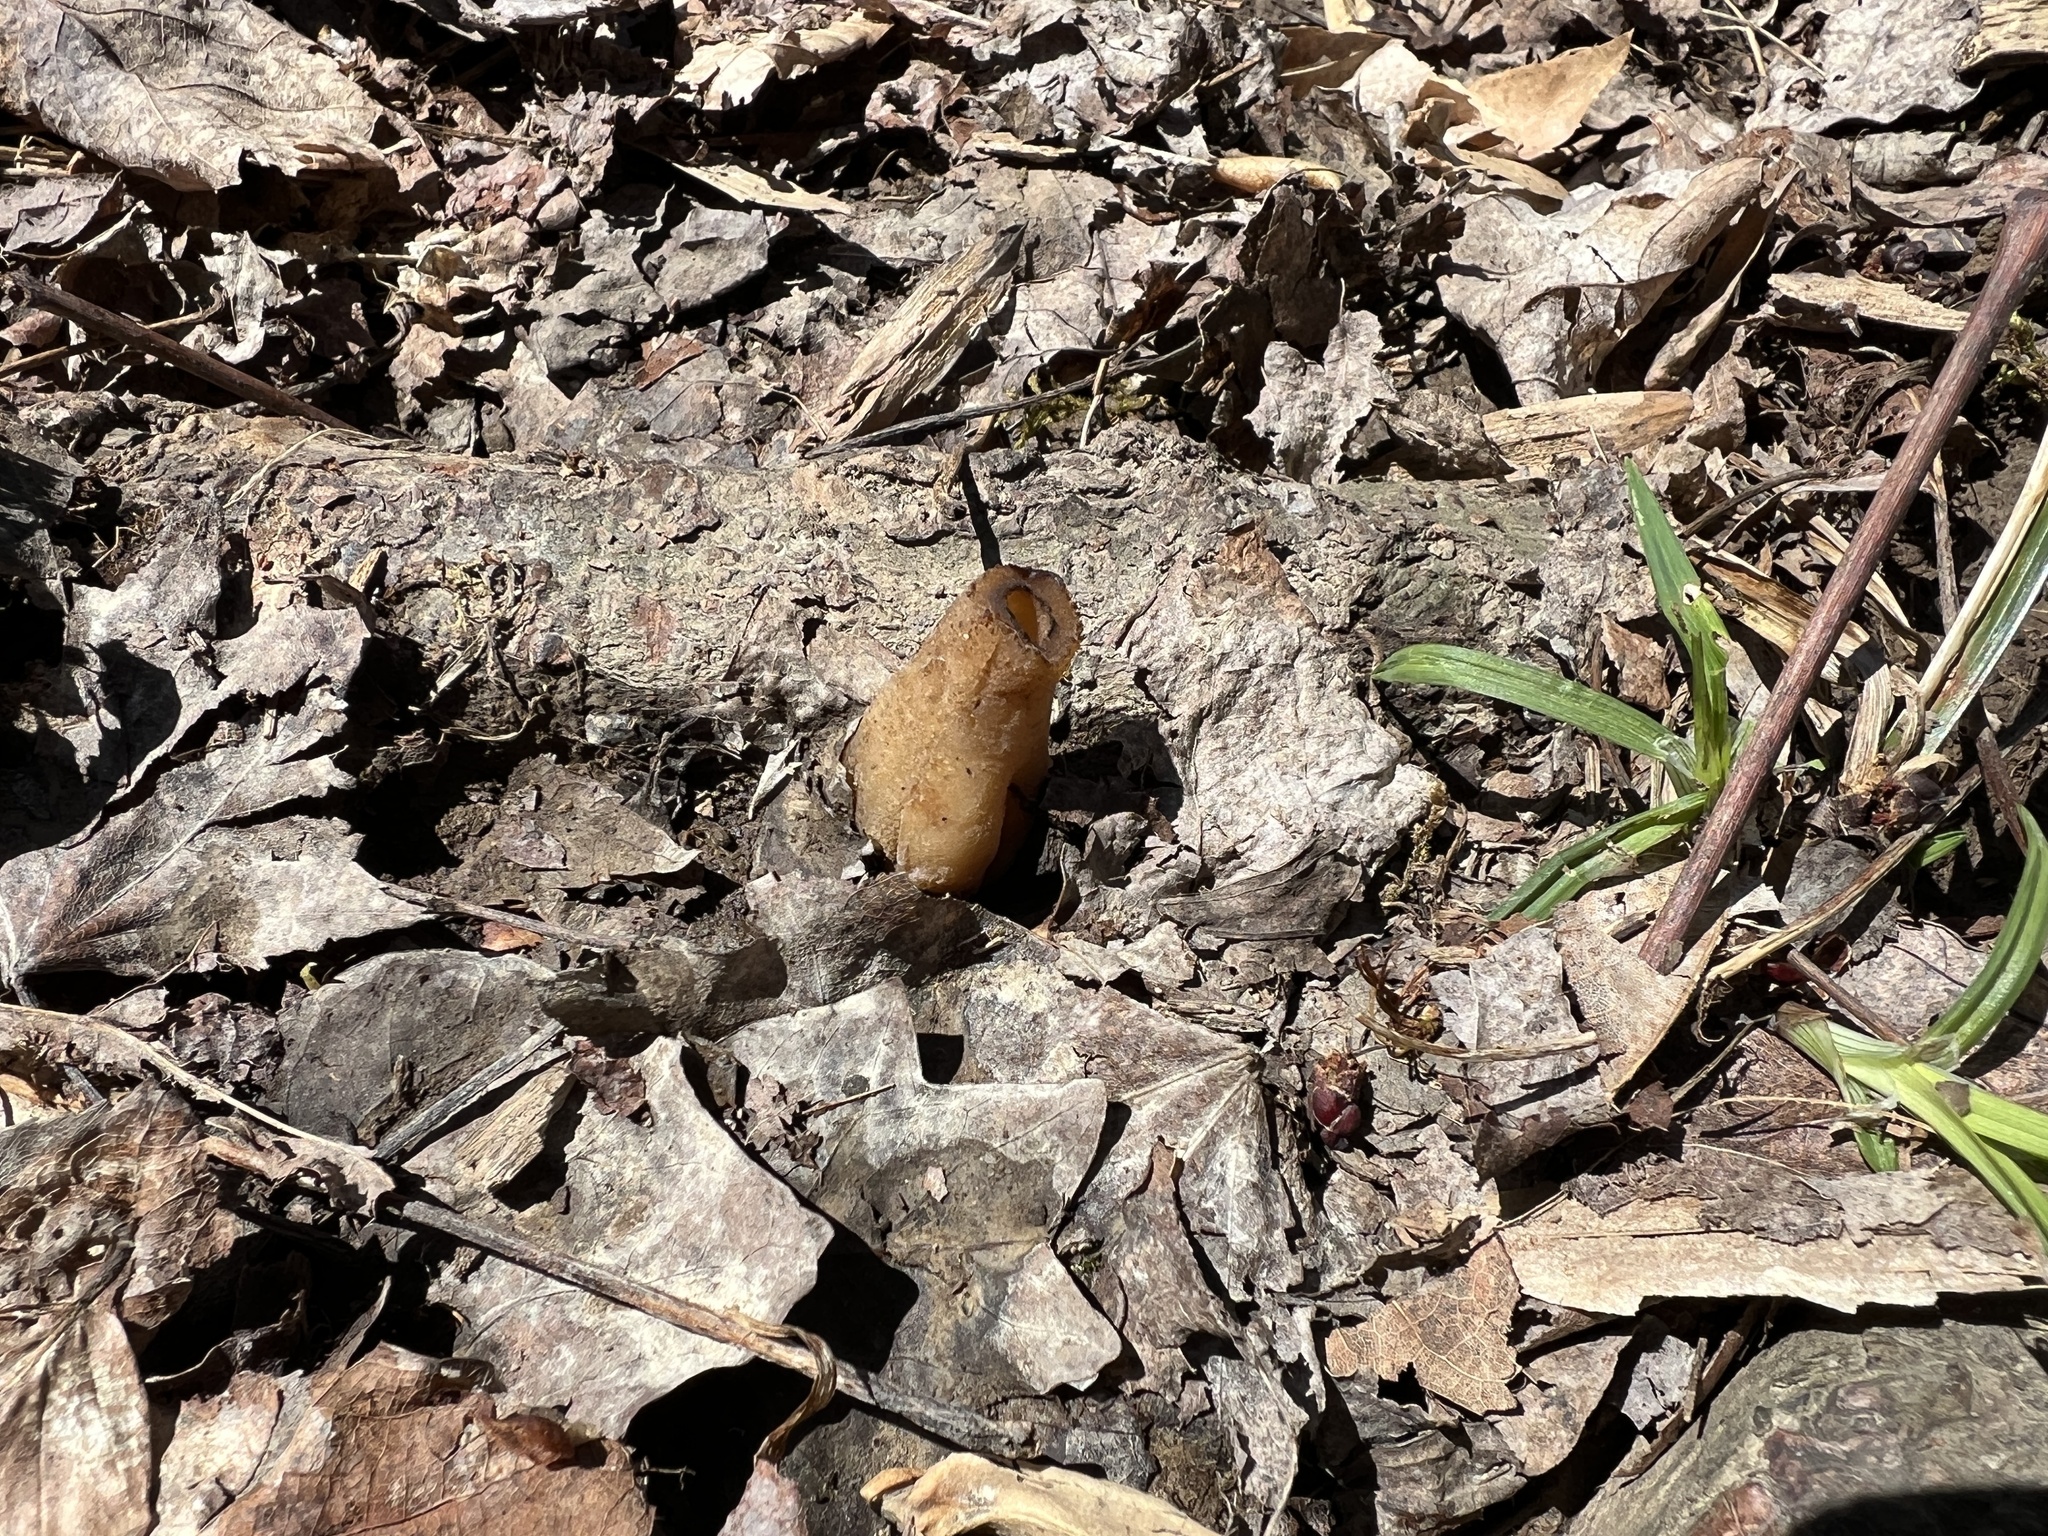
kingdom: Fungi
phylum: Ascomycota
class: Pezizomycetes
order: Pezizales
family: Morchellaceae
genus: Morchella
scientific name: Morchella angusticeps
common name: Black morel
